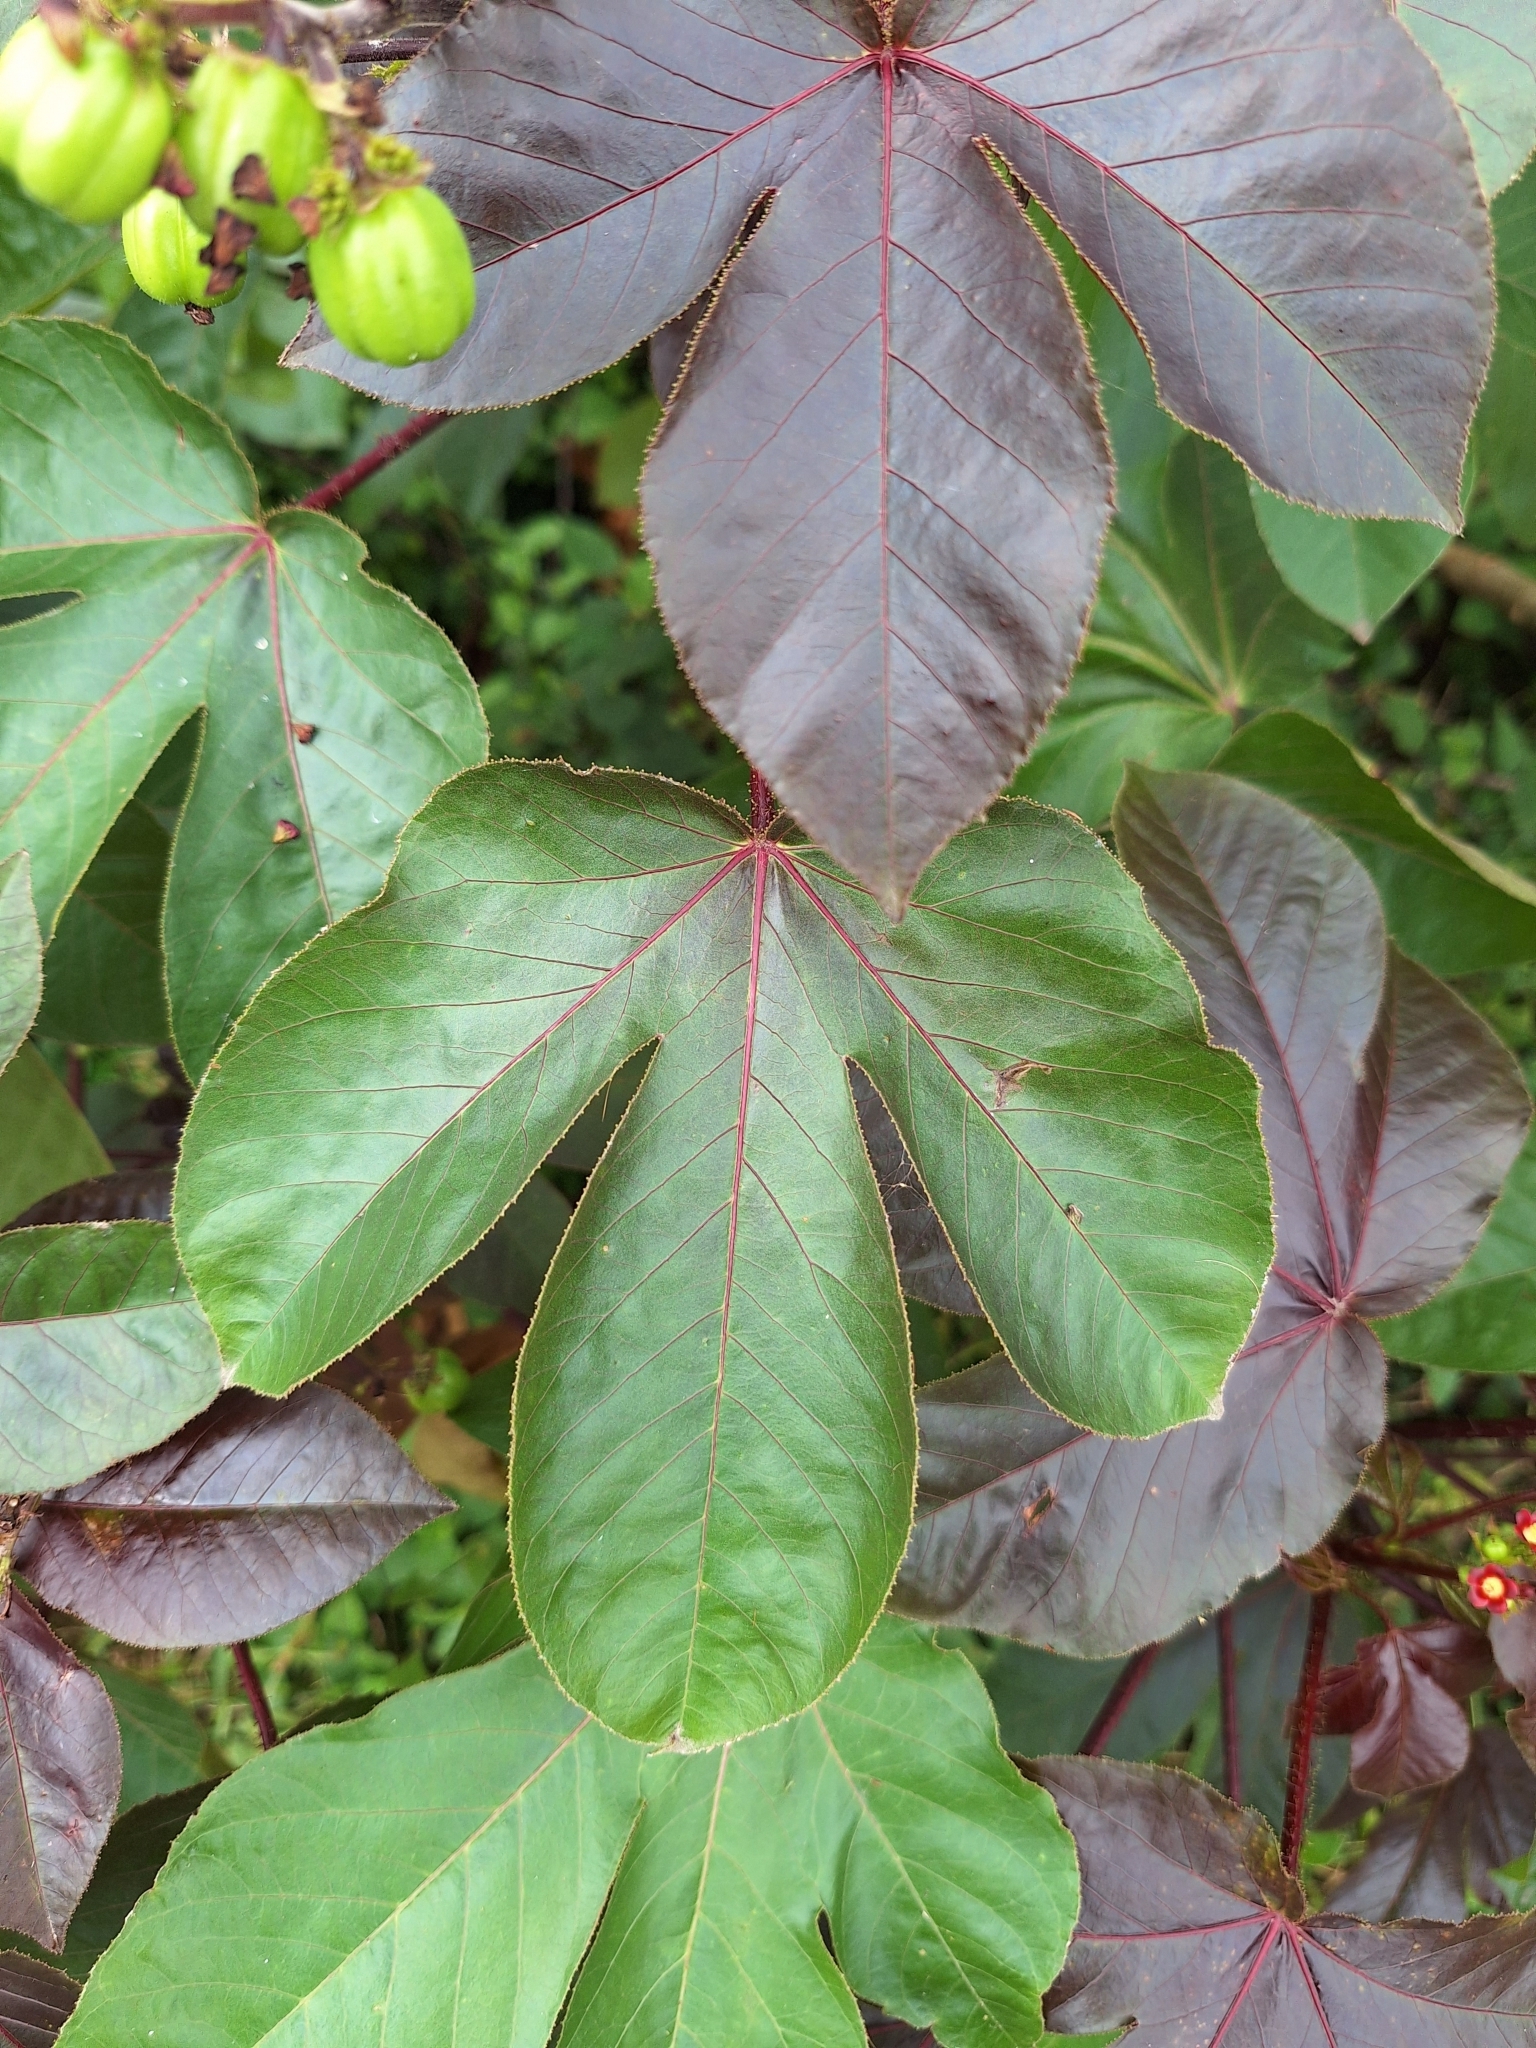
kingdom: Plantae
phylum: Tracheophyta
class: Magnoliopsida
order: Malpighiales
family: Euphorbiaceae
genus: Jatropha
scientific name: Jatropha gossypiifolia
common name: Bellyache bush
